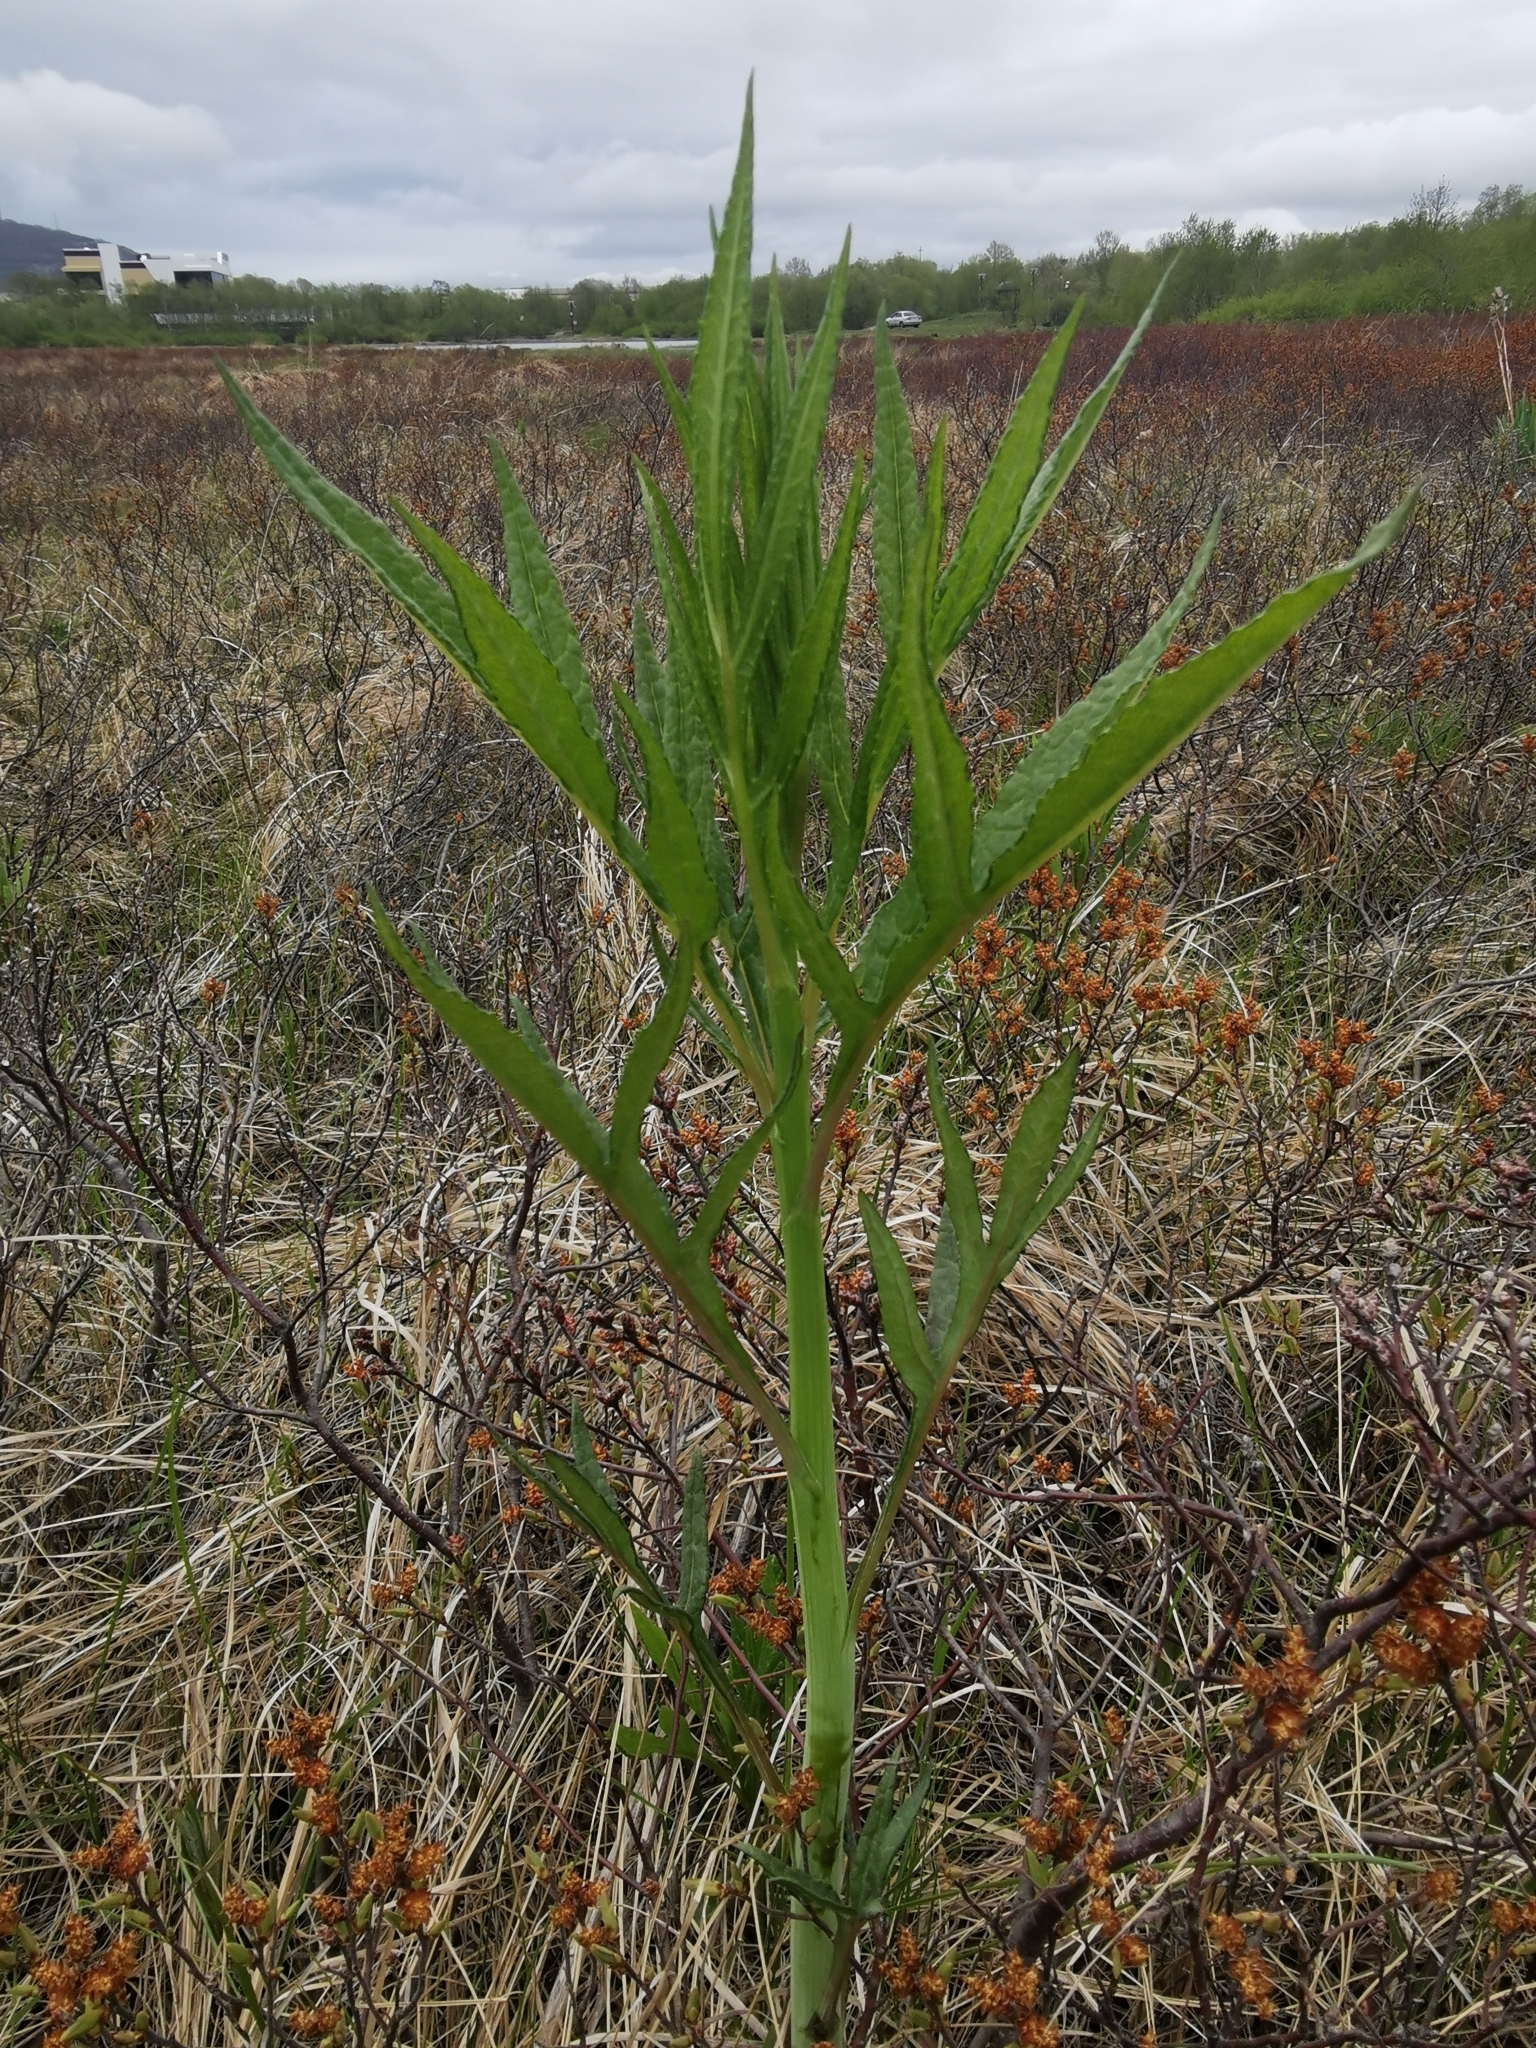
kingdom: Plantae
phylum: Tracheophyta
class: Magnoliopsida
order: Asterales
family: Asteraceae
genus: Jacobaea
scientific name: Jacobaea cannabifolia
